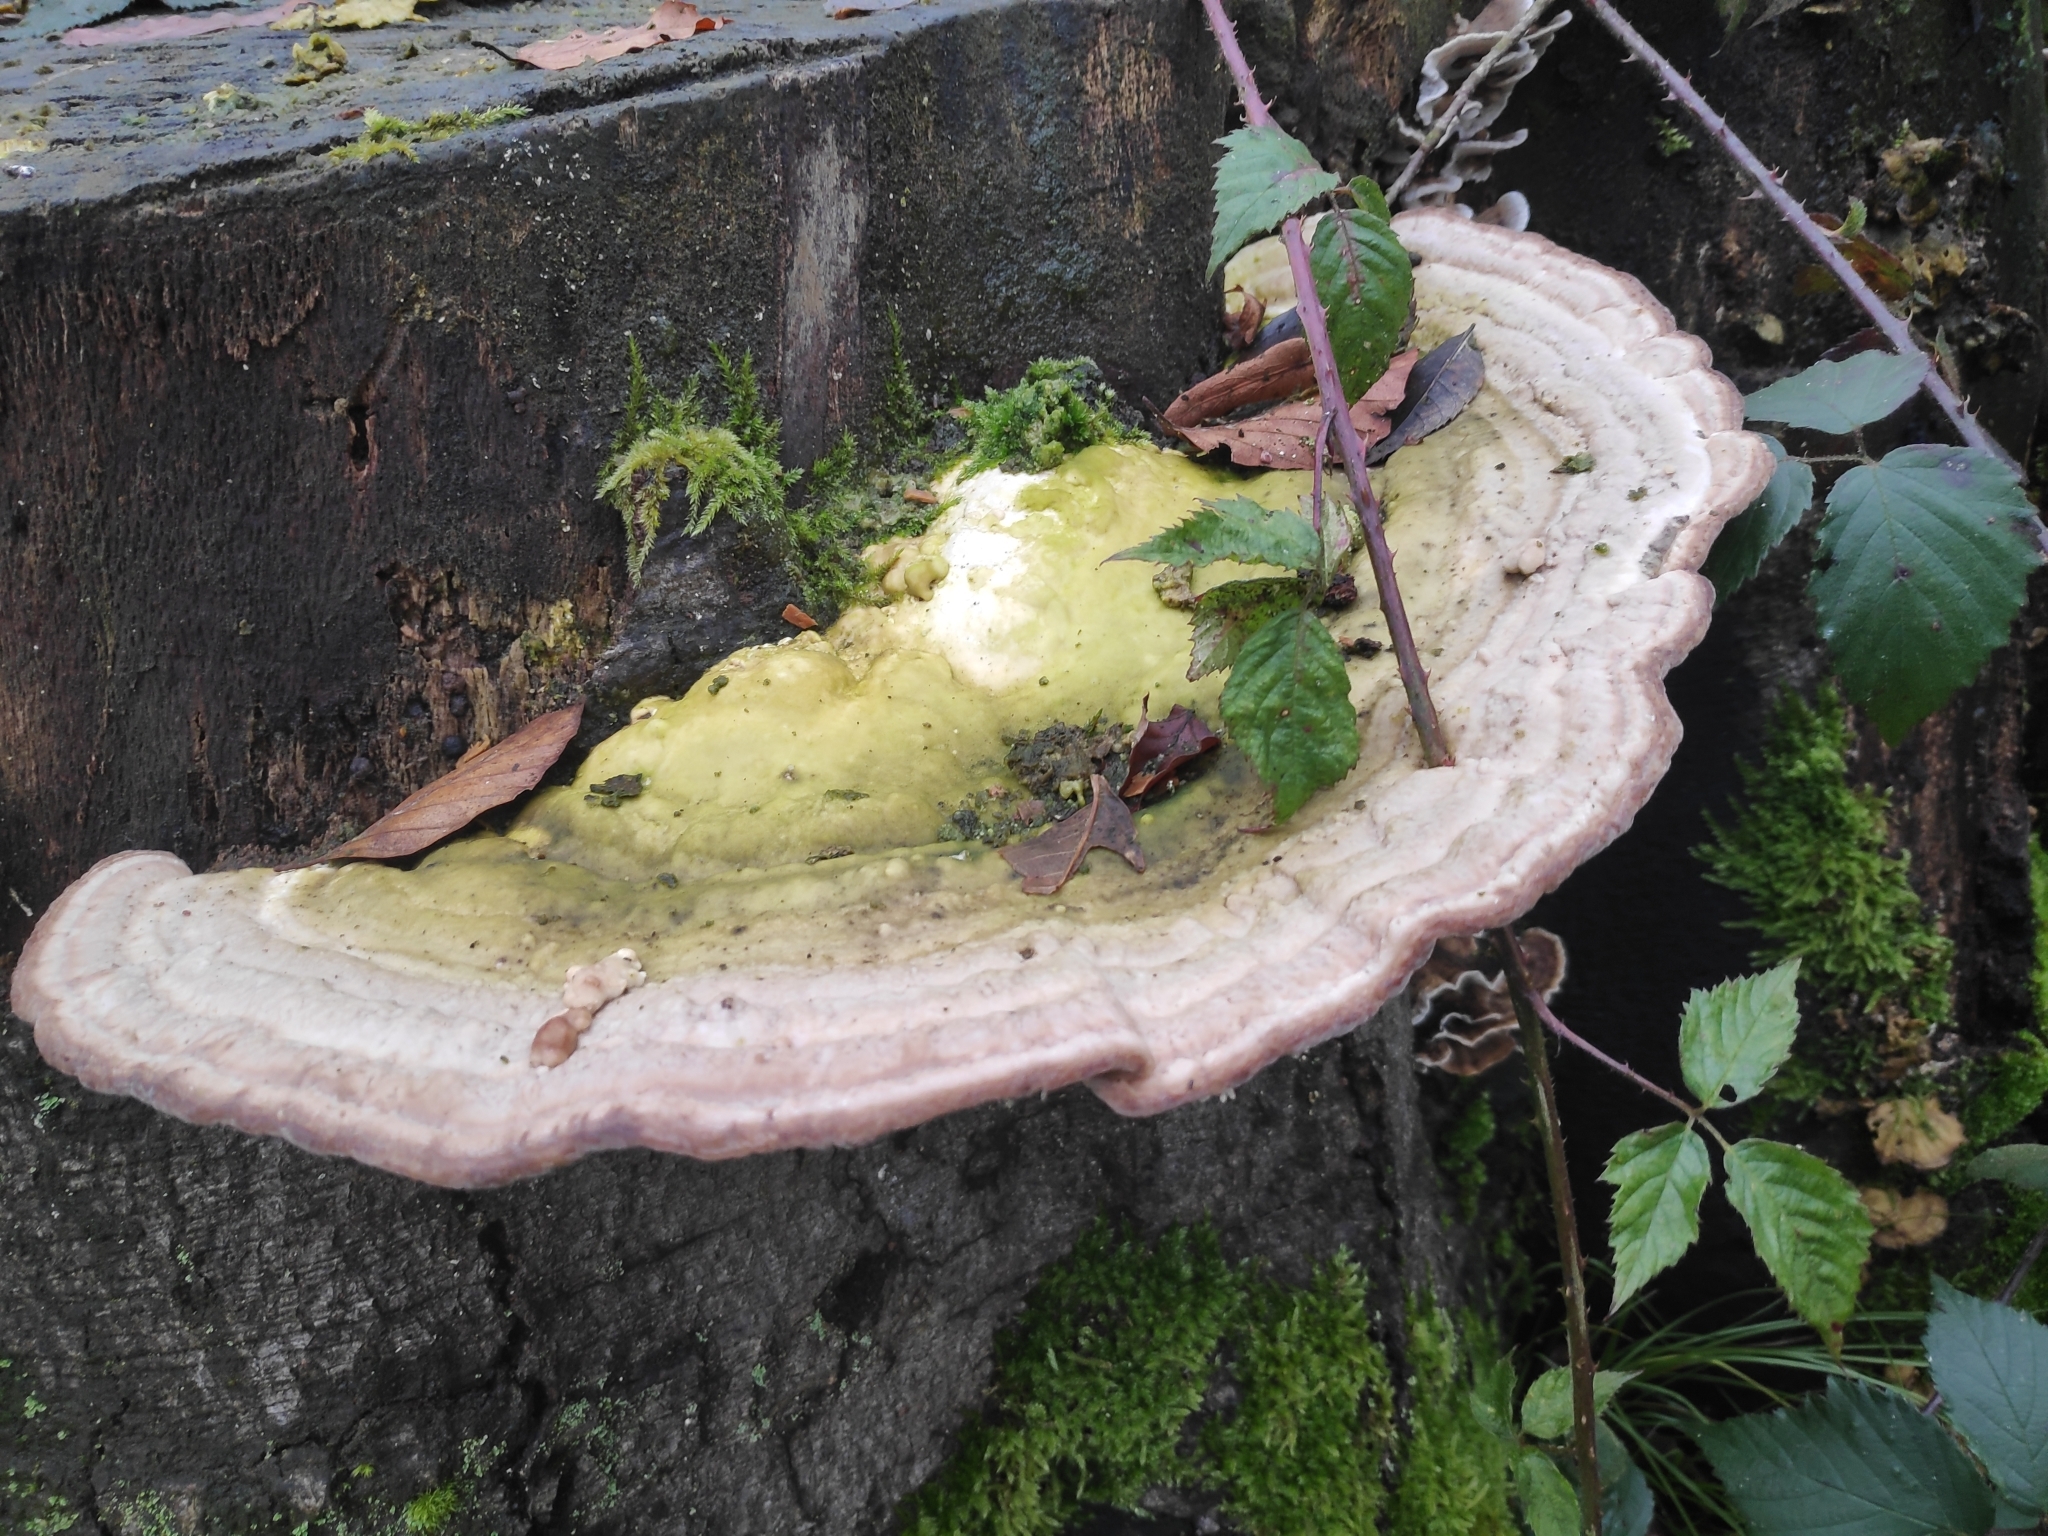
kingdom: Fungi
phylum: Basidiomycota
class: Agaricomycetes
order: Polyporales
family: Polyporaceae
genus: Trametes
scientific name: Trametes gibbosa
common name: Lumpy bracket
